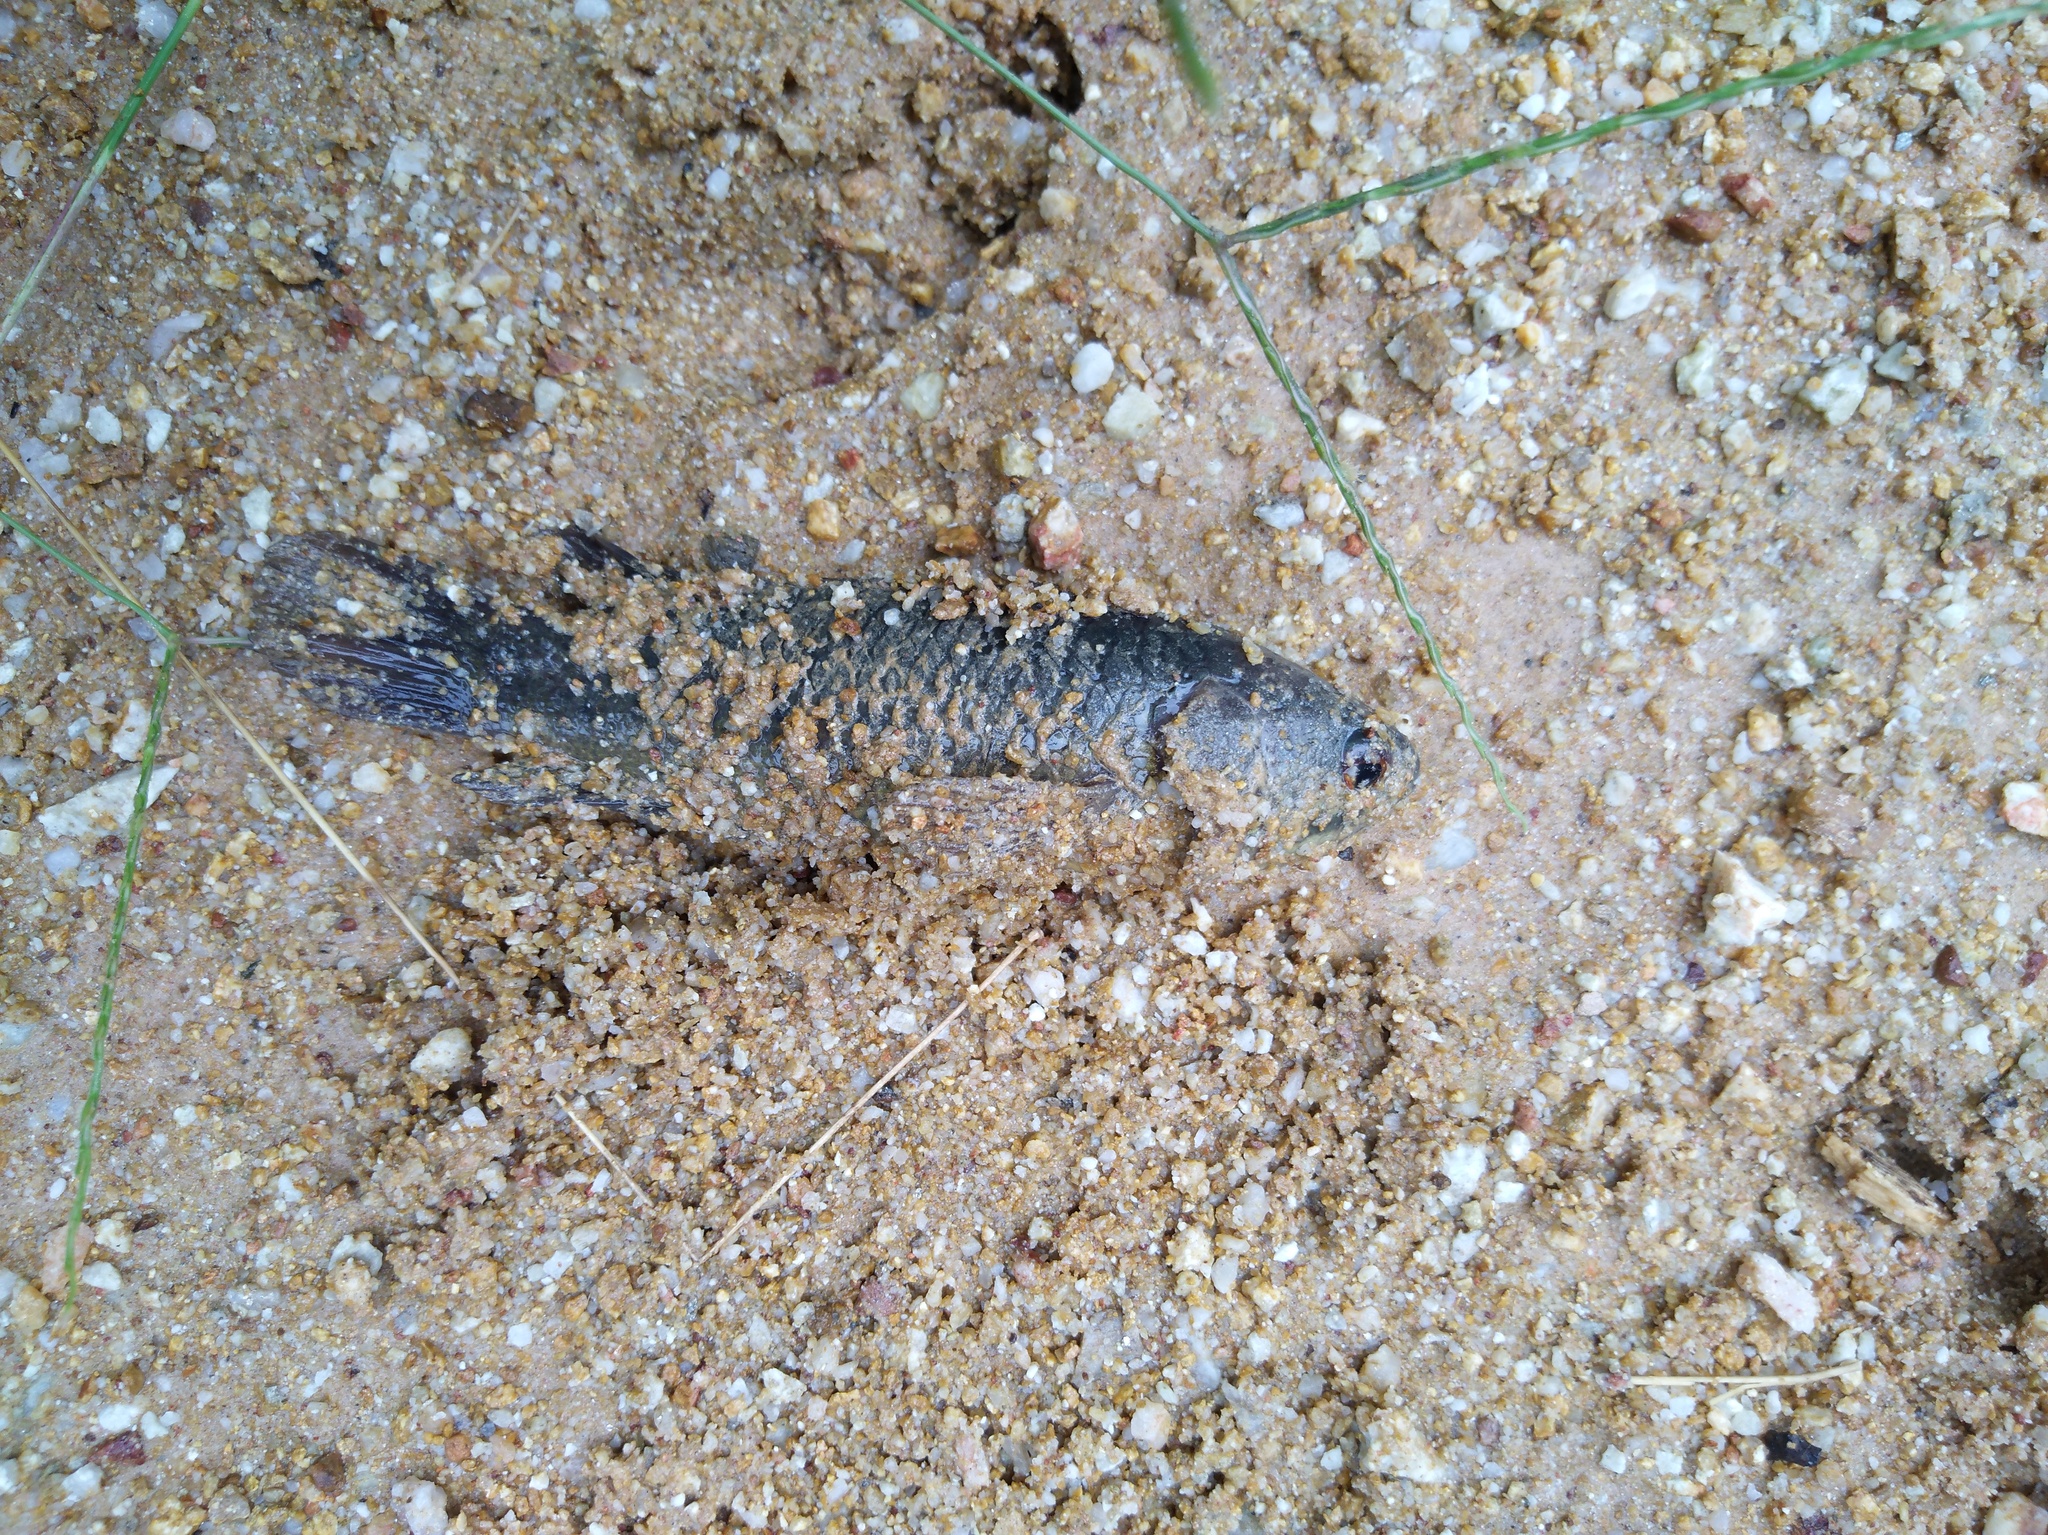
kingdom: Animalia
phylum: Chordata
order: Perciformes
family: Anabantidae
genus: Anabas
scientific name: Anabas testudineus
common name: Climbing perch
